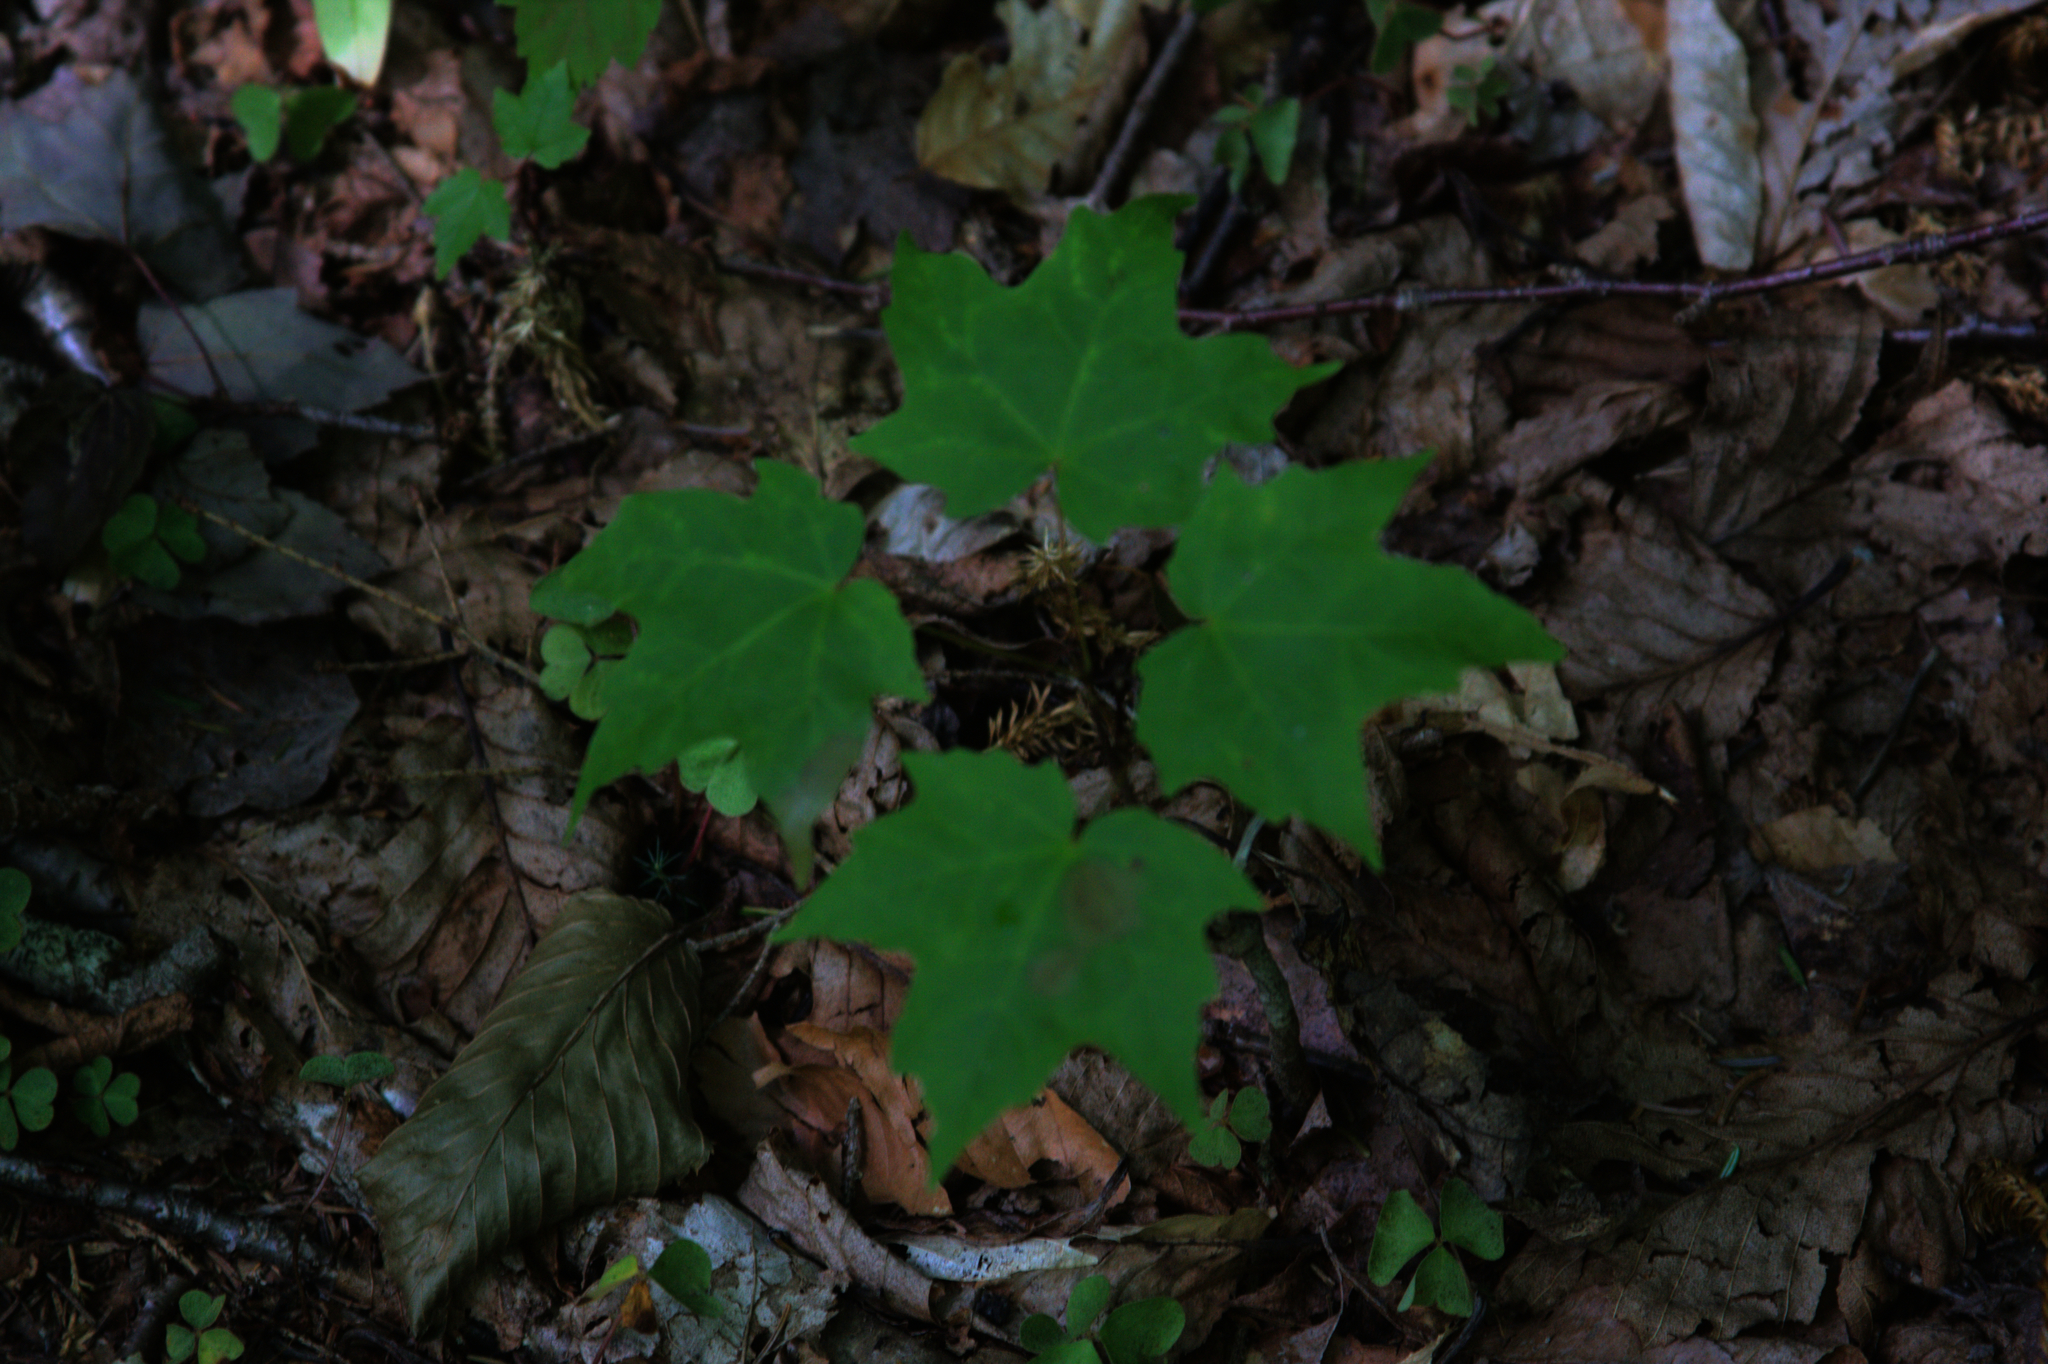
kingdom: Plantae
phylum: Tracheophyta
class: Magnoliopsida
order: Sapindales
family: Sapindaceae
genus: Acer
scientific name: Acer saccharum
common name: Sugar maple
